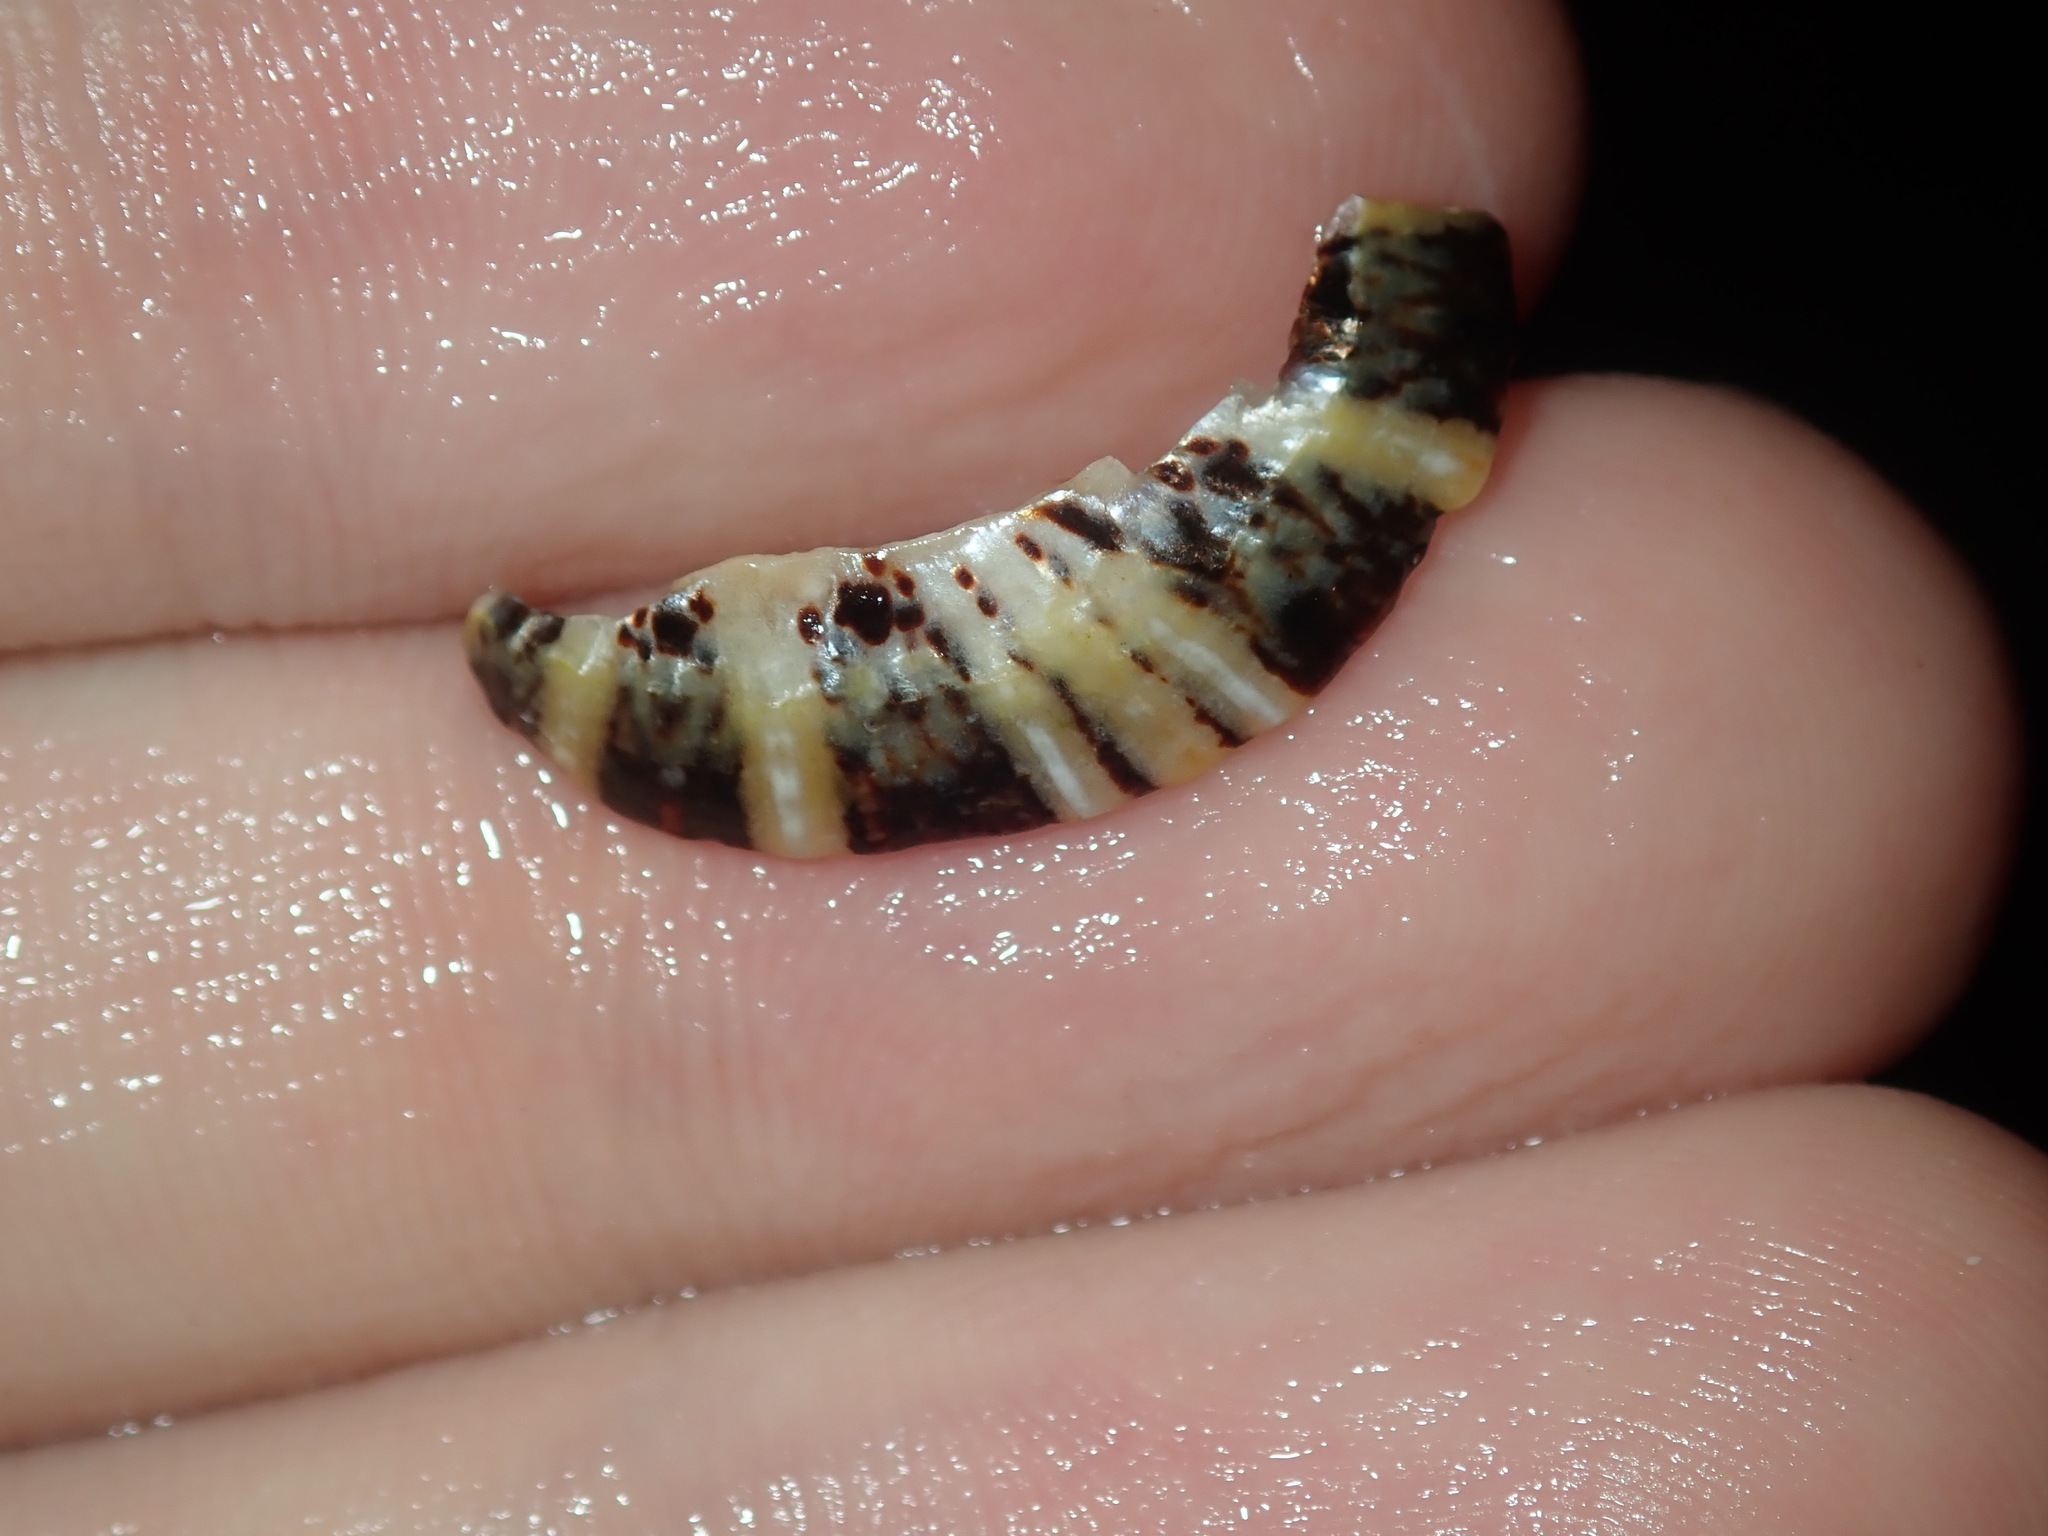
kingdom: Animalia
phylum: Mollusca
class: Gastropoda
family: Nacellidae
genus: Cellana
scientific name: Cellana tramoserica
